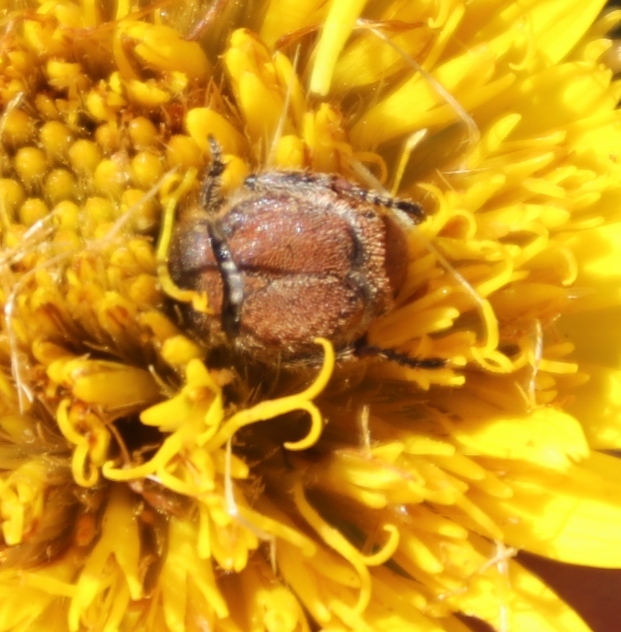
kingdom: Plantae
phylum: Tracheophyta
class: Magnoliopsida
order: Asterales
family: Asteraceae
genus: Berkheya
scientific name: Berkheya setifera
